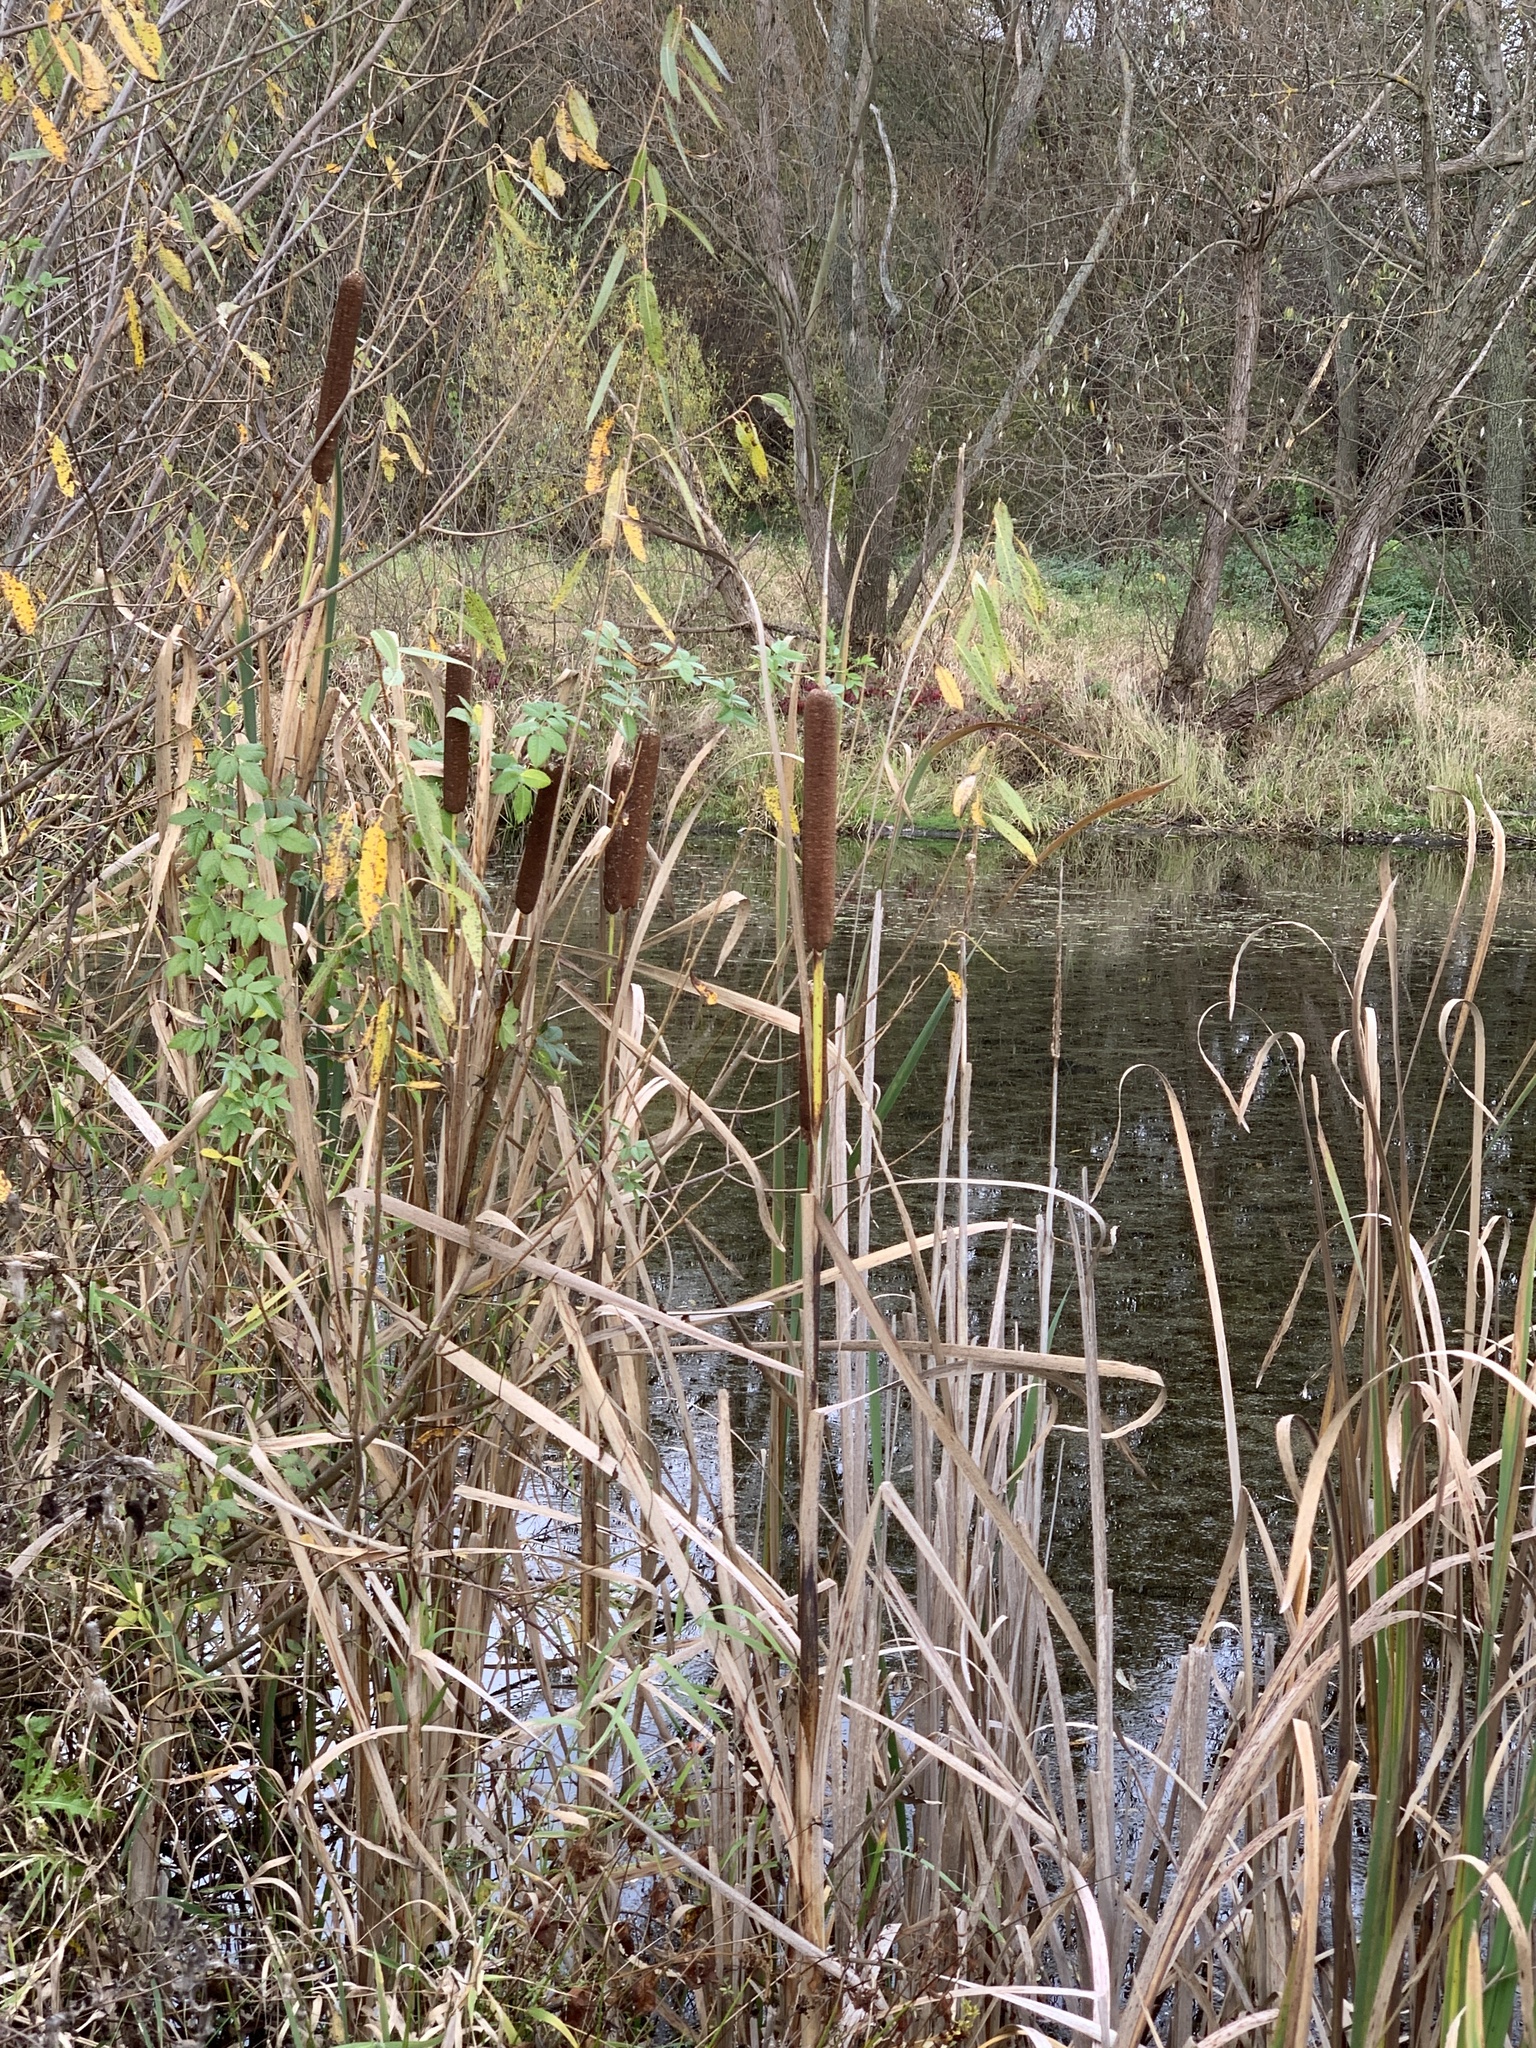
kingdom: Plantae
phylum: Tracheophyta
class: Liliopsida
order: Poales
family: Typhaceae
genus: Typha
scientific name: Typha latifolia
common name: Broadleaf cattail
